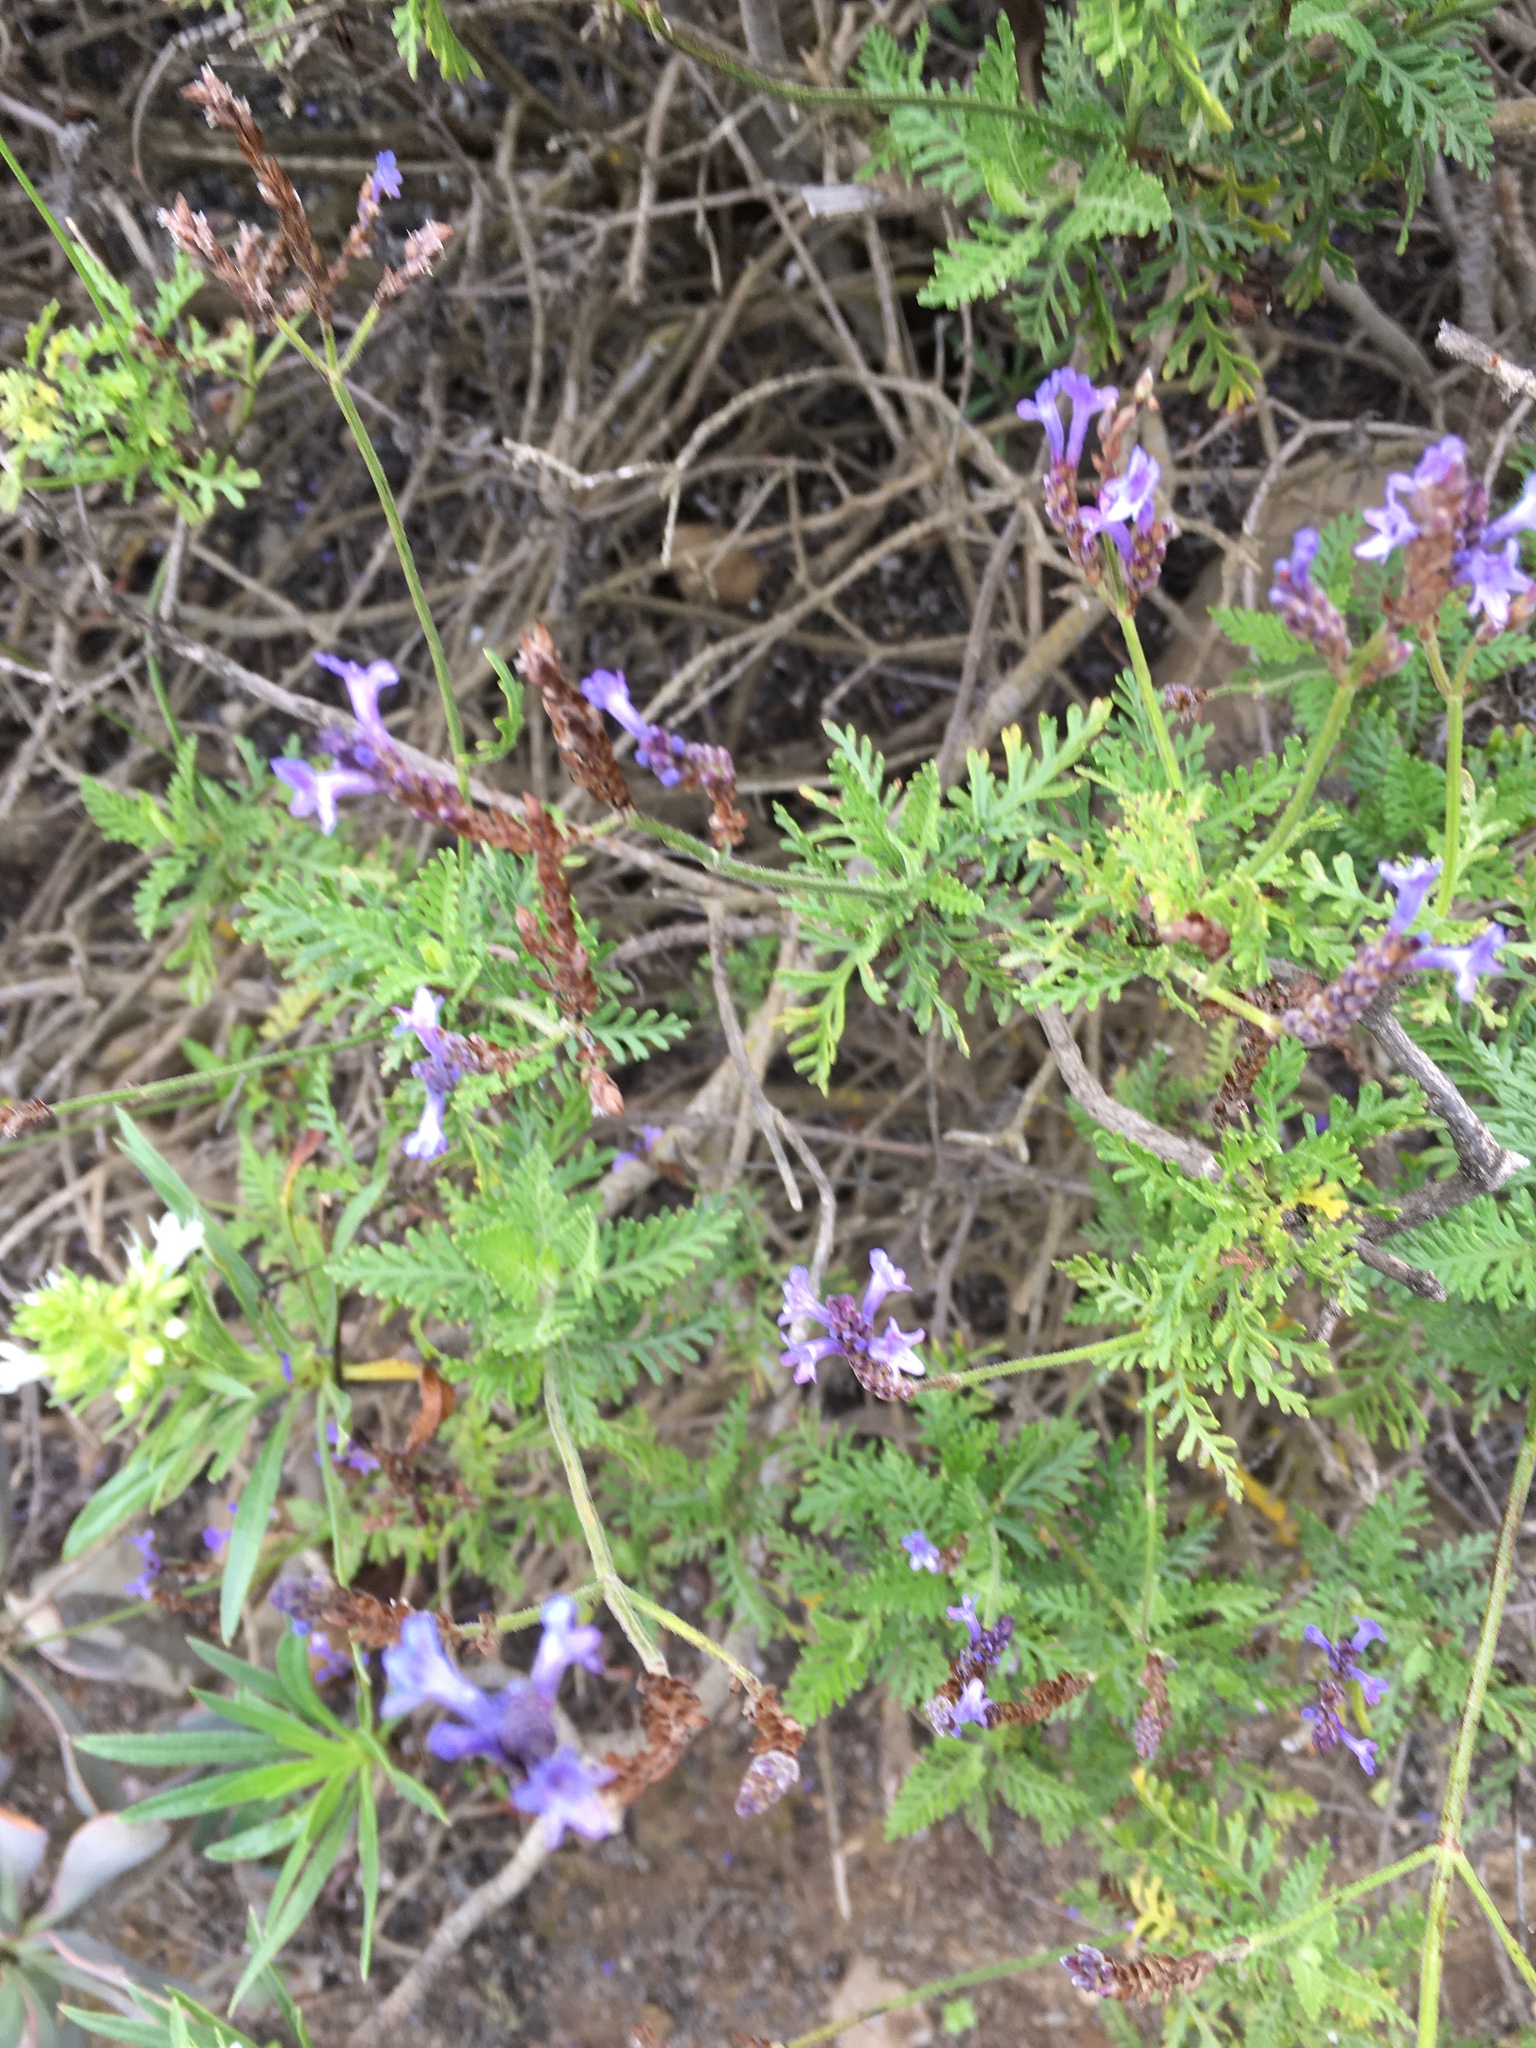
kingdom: Plantae
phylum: Tracheophyta
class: Magnoliopsida
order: Lamiales
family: Lamiaceae
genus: Lavandula
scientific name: Lavandula canariensis
